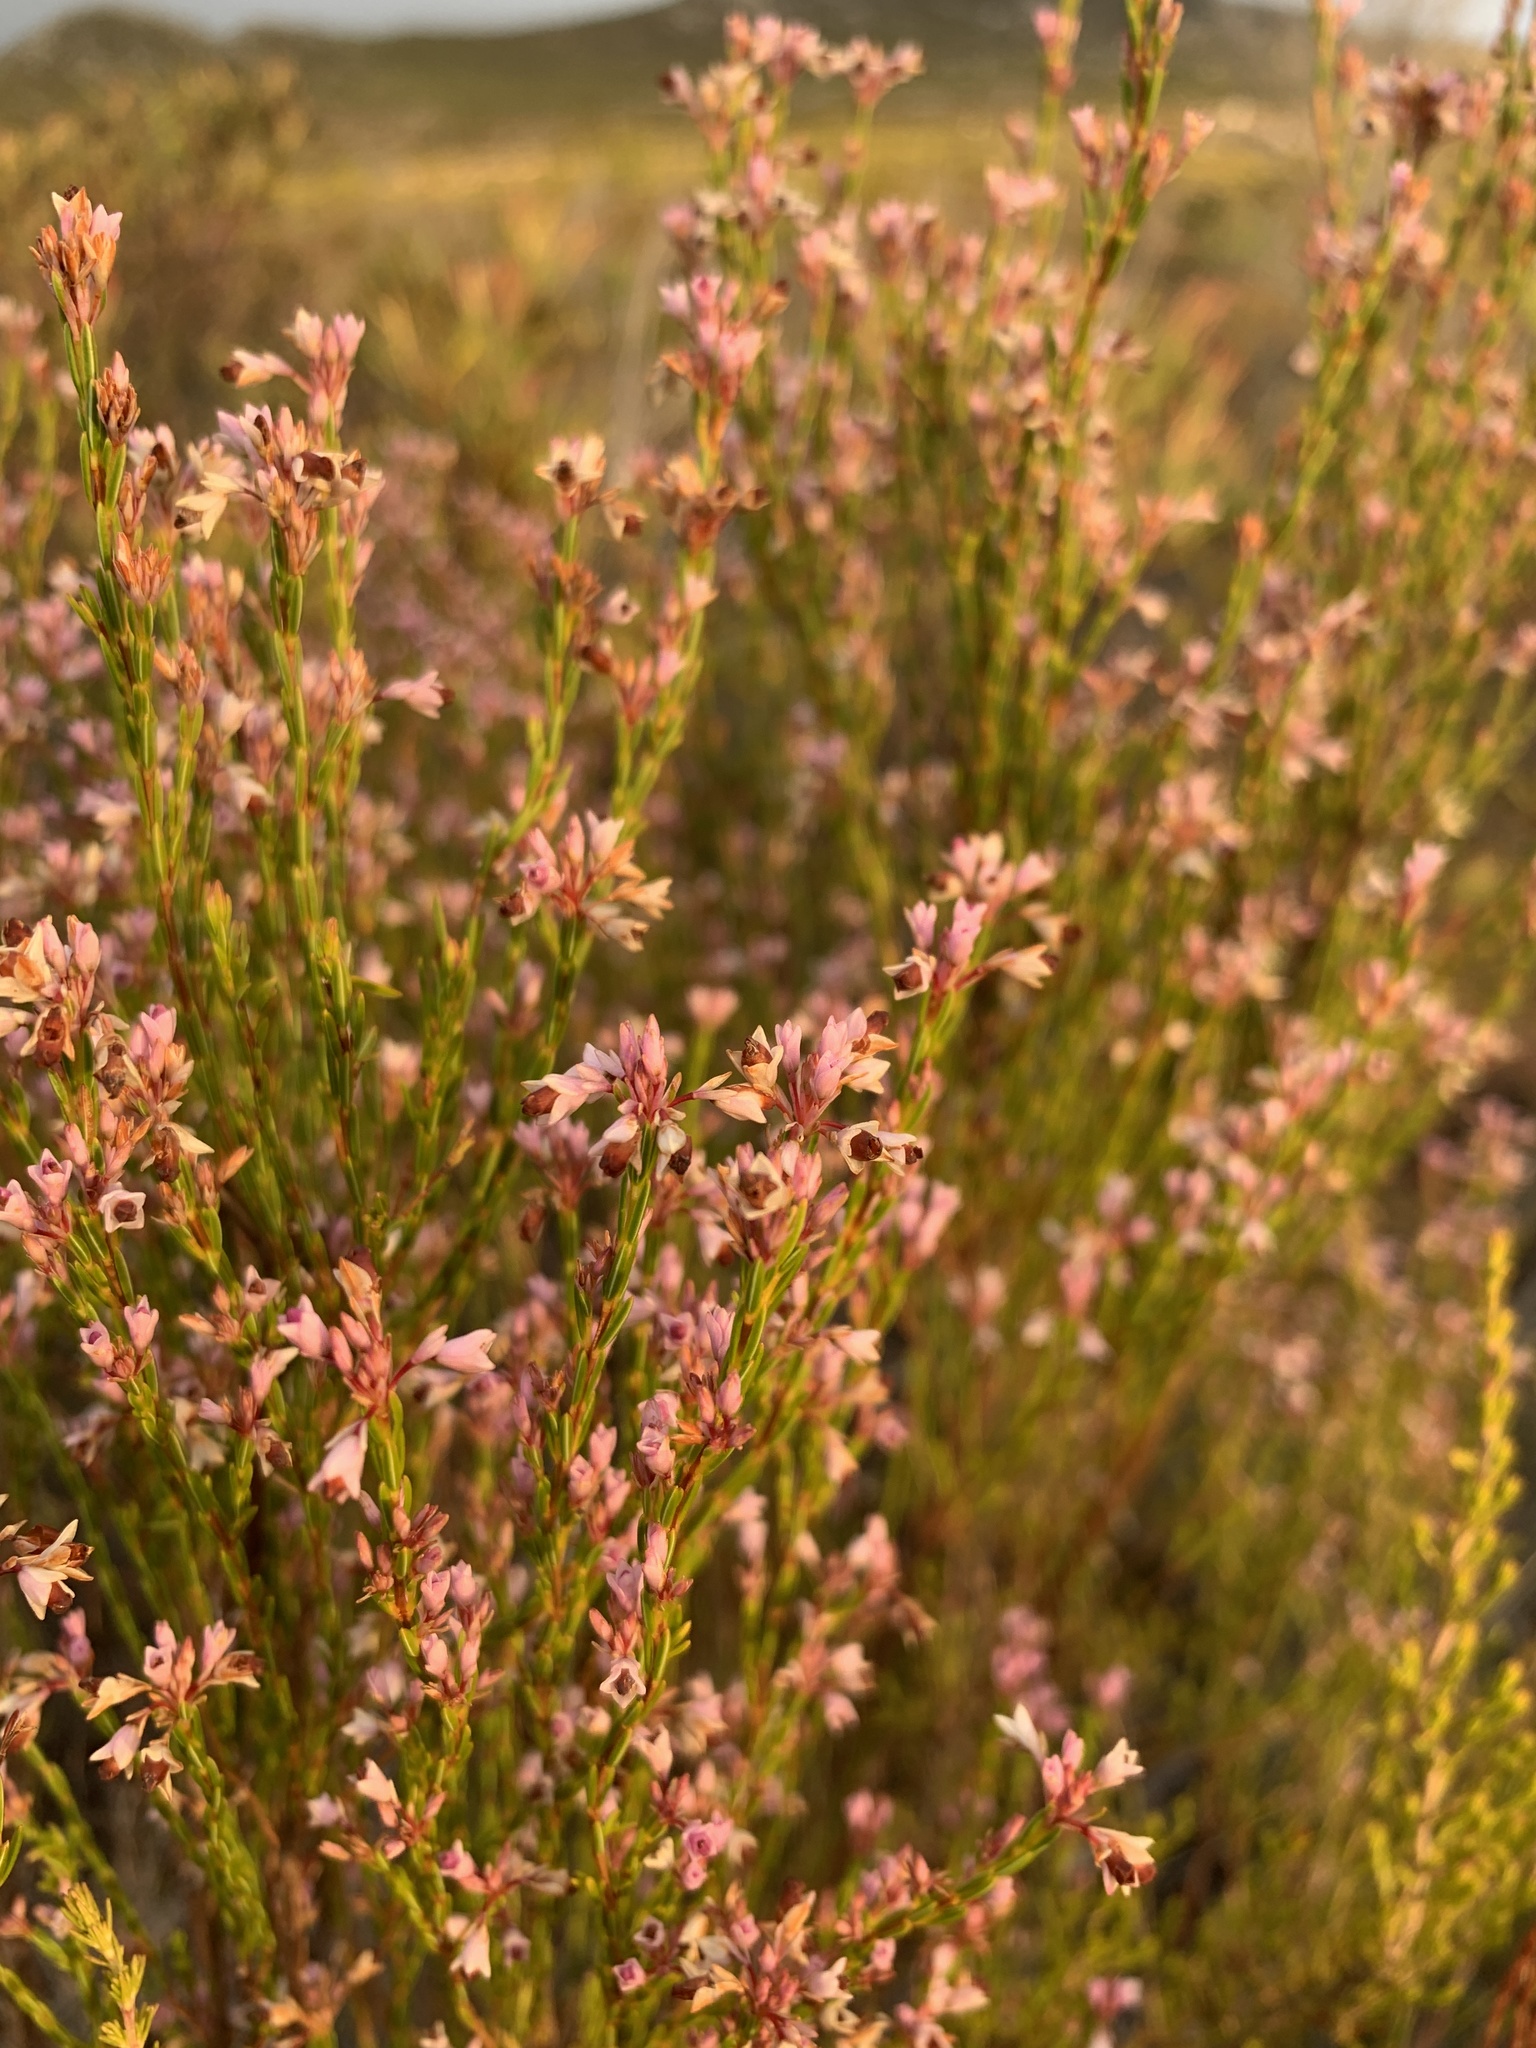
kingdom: Plantae
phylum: Tracheophyta
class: Magnoliopsida
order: Ericales
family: Ericaceae
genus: Erica
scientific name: Erica corifolia
